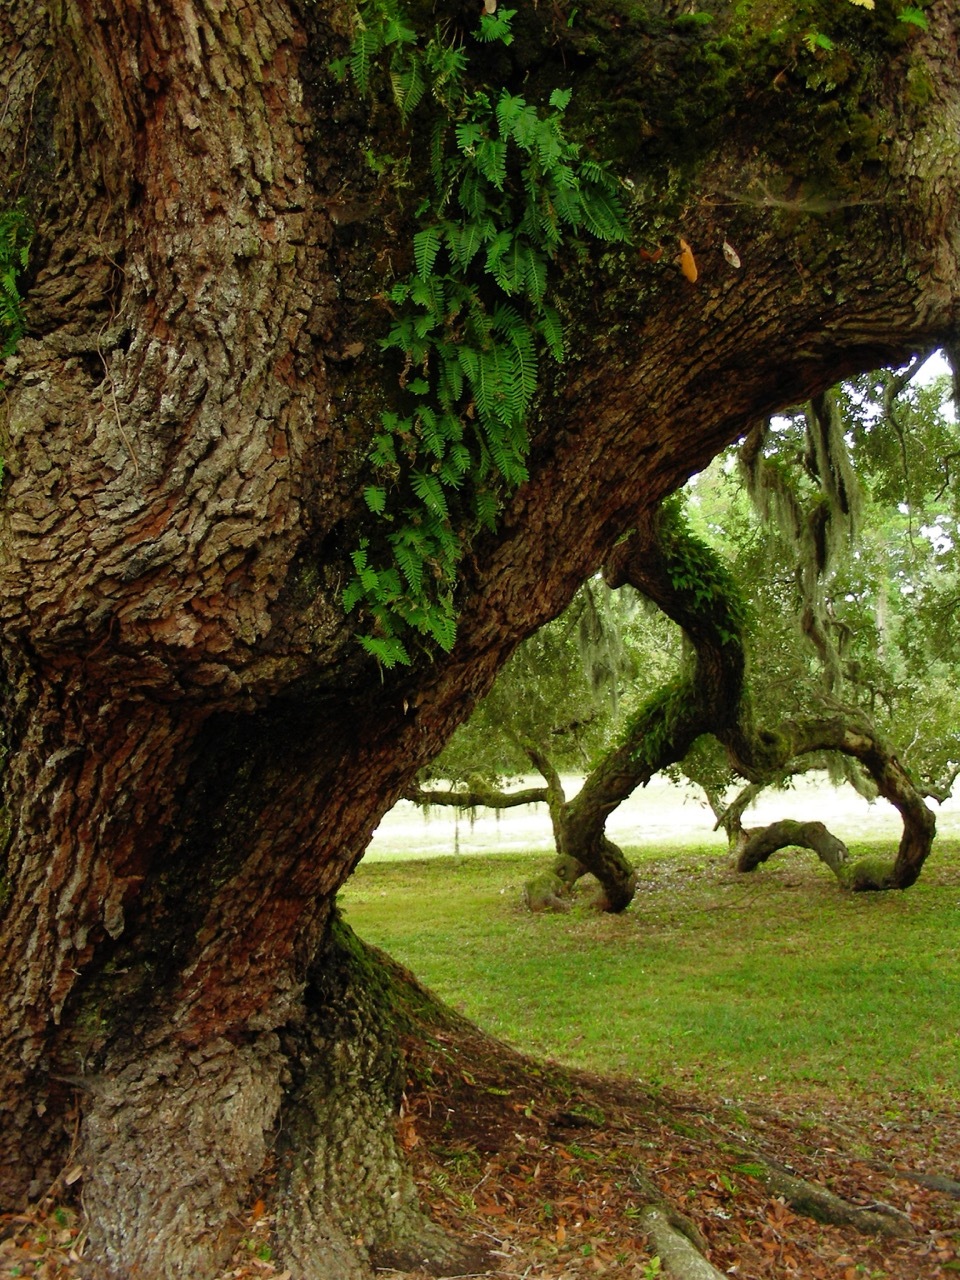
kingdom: Plantae
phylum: Tracheophyta
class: Polypodiopsida
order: Polypodiales
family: Polypodiaceae
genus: Pleopeltis
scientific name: Pleopeltis michauxiana
